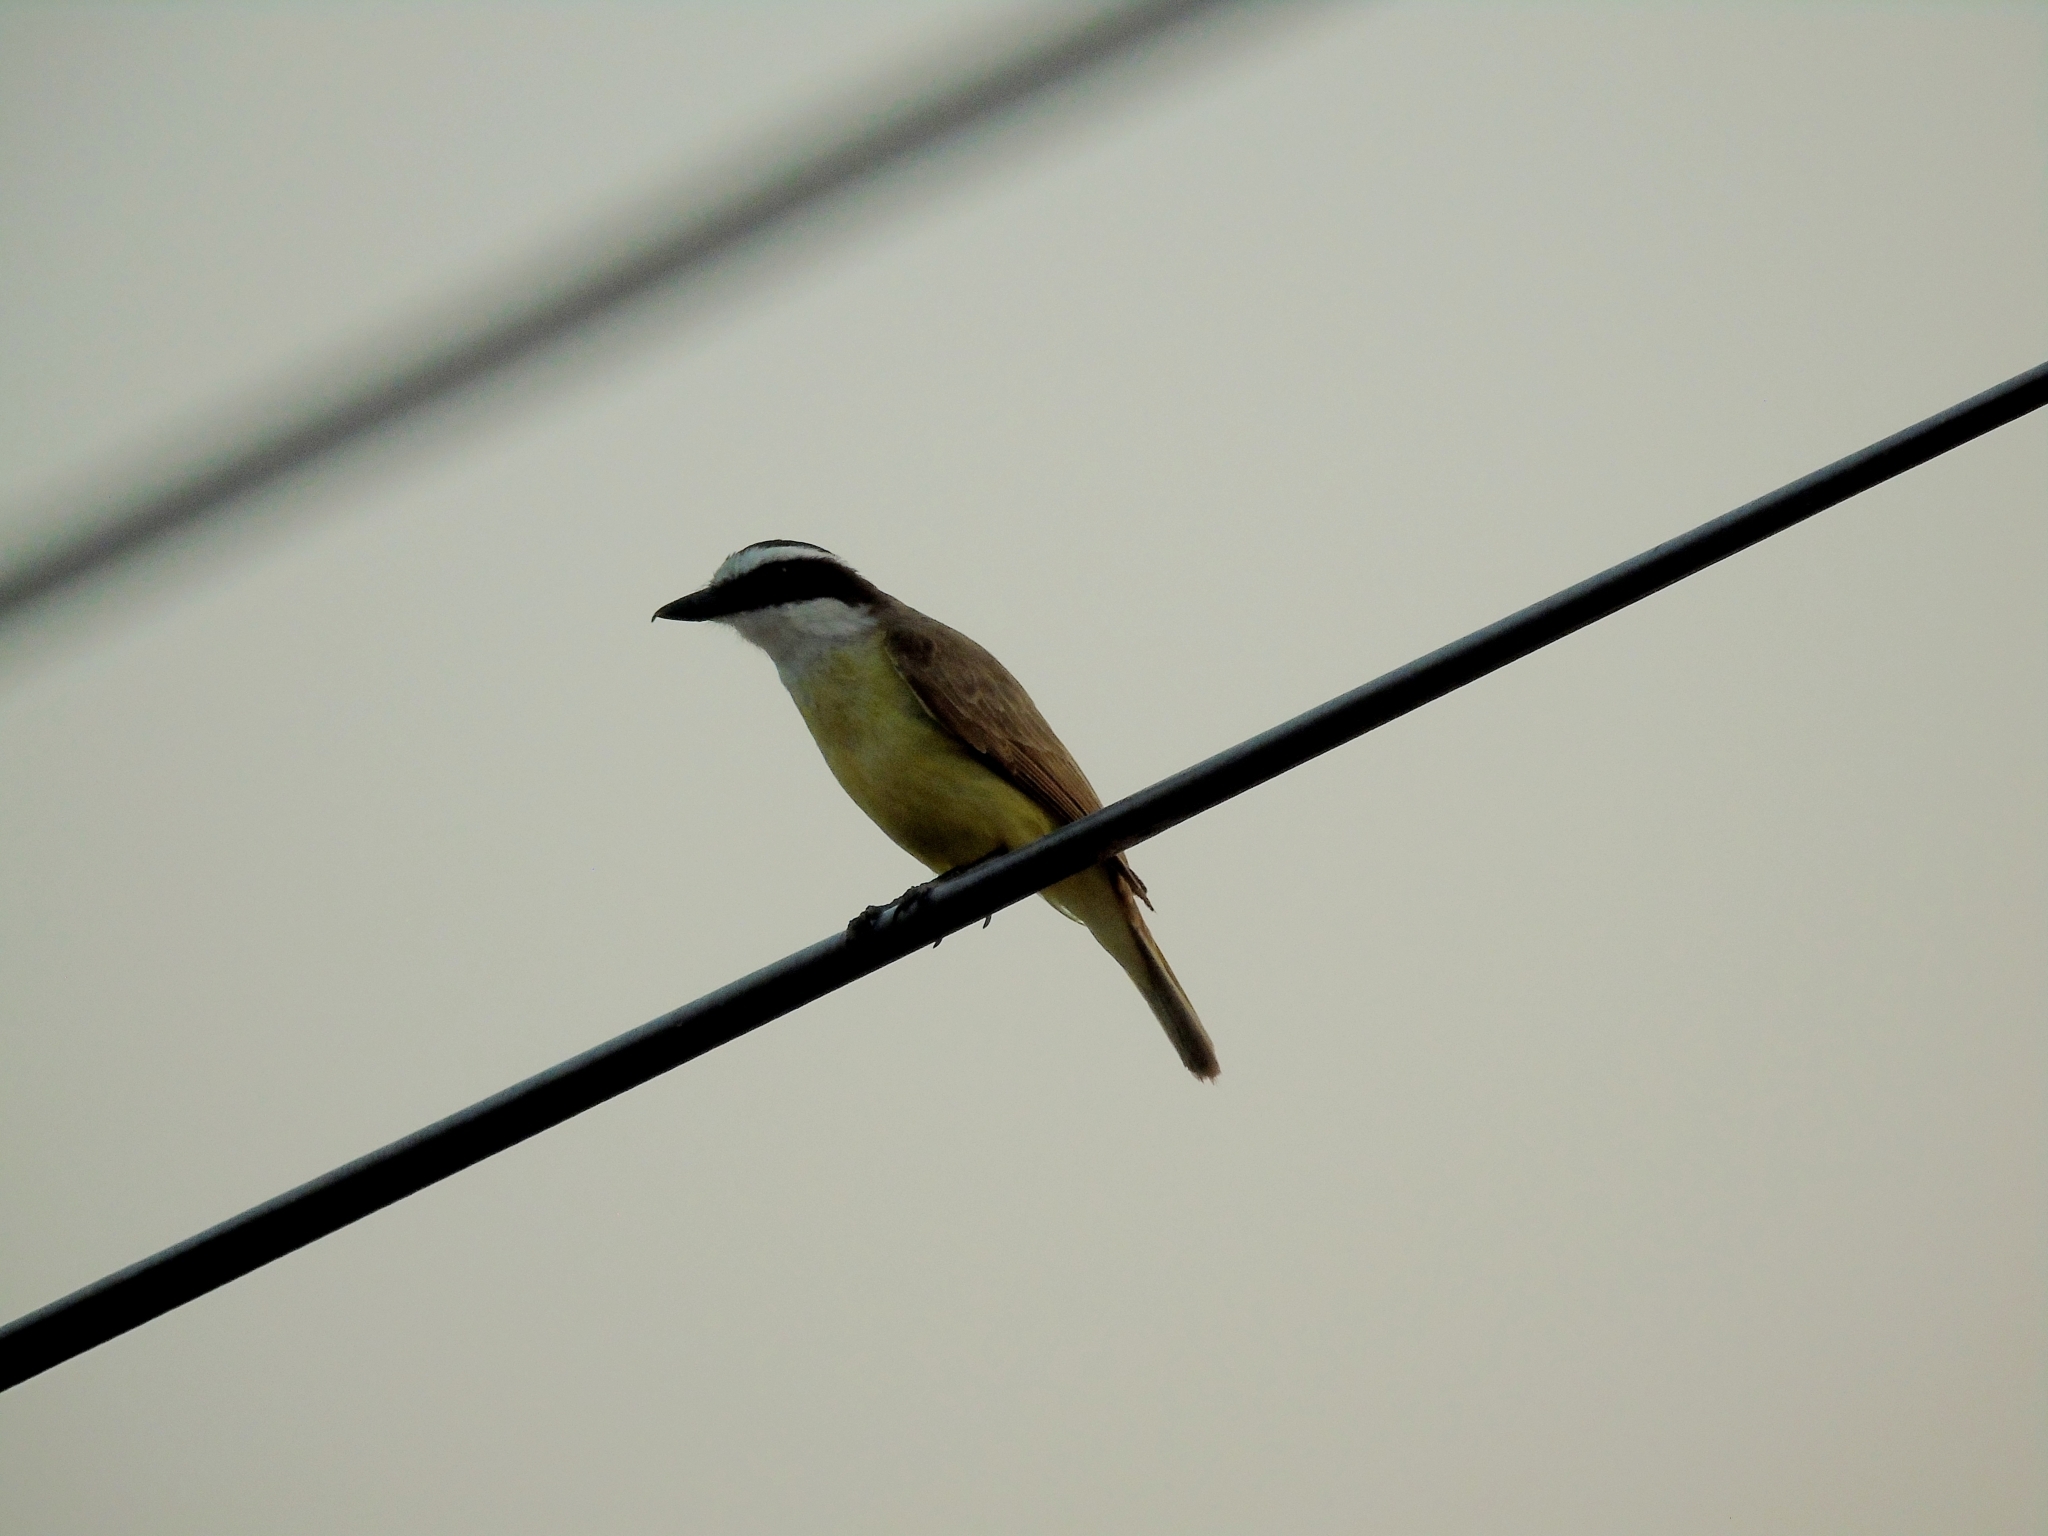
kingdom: Animalia
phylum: Chordata
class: Aves
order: Passeriformes
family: Tyrannidae
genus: Pitangus
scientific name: Pitangus sulphuratus
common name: Great kiskadee
